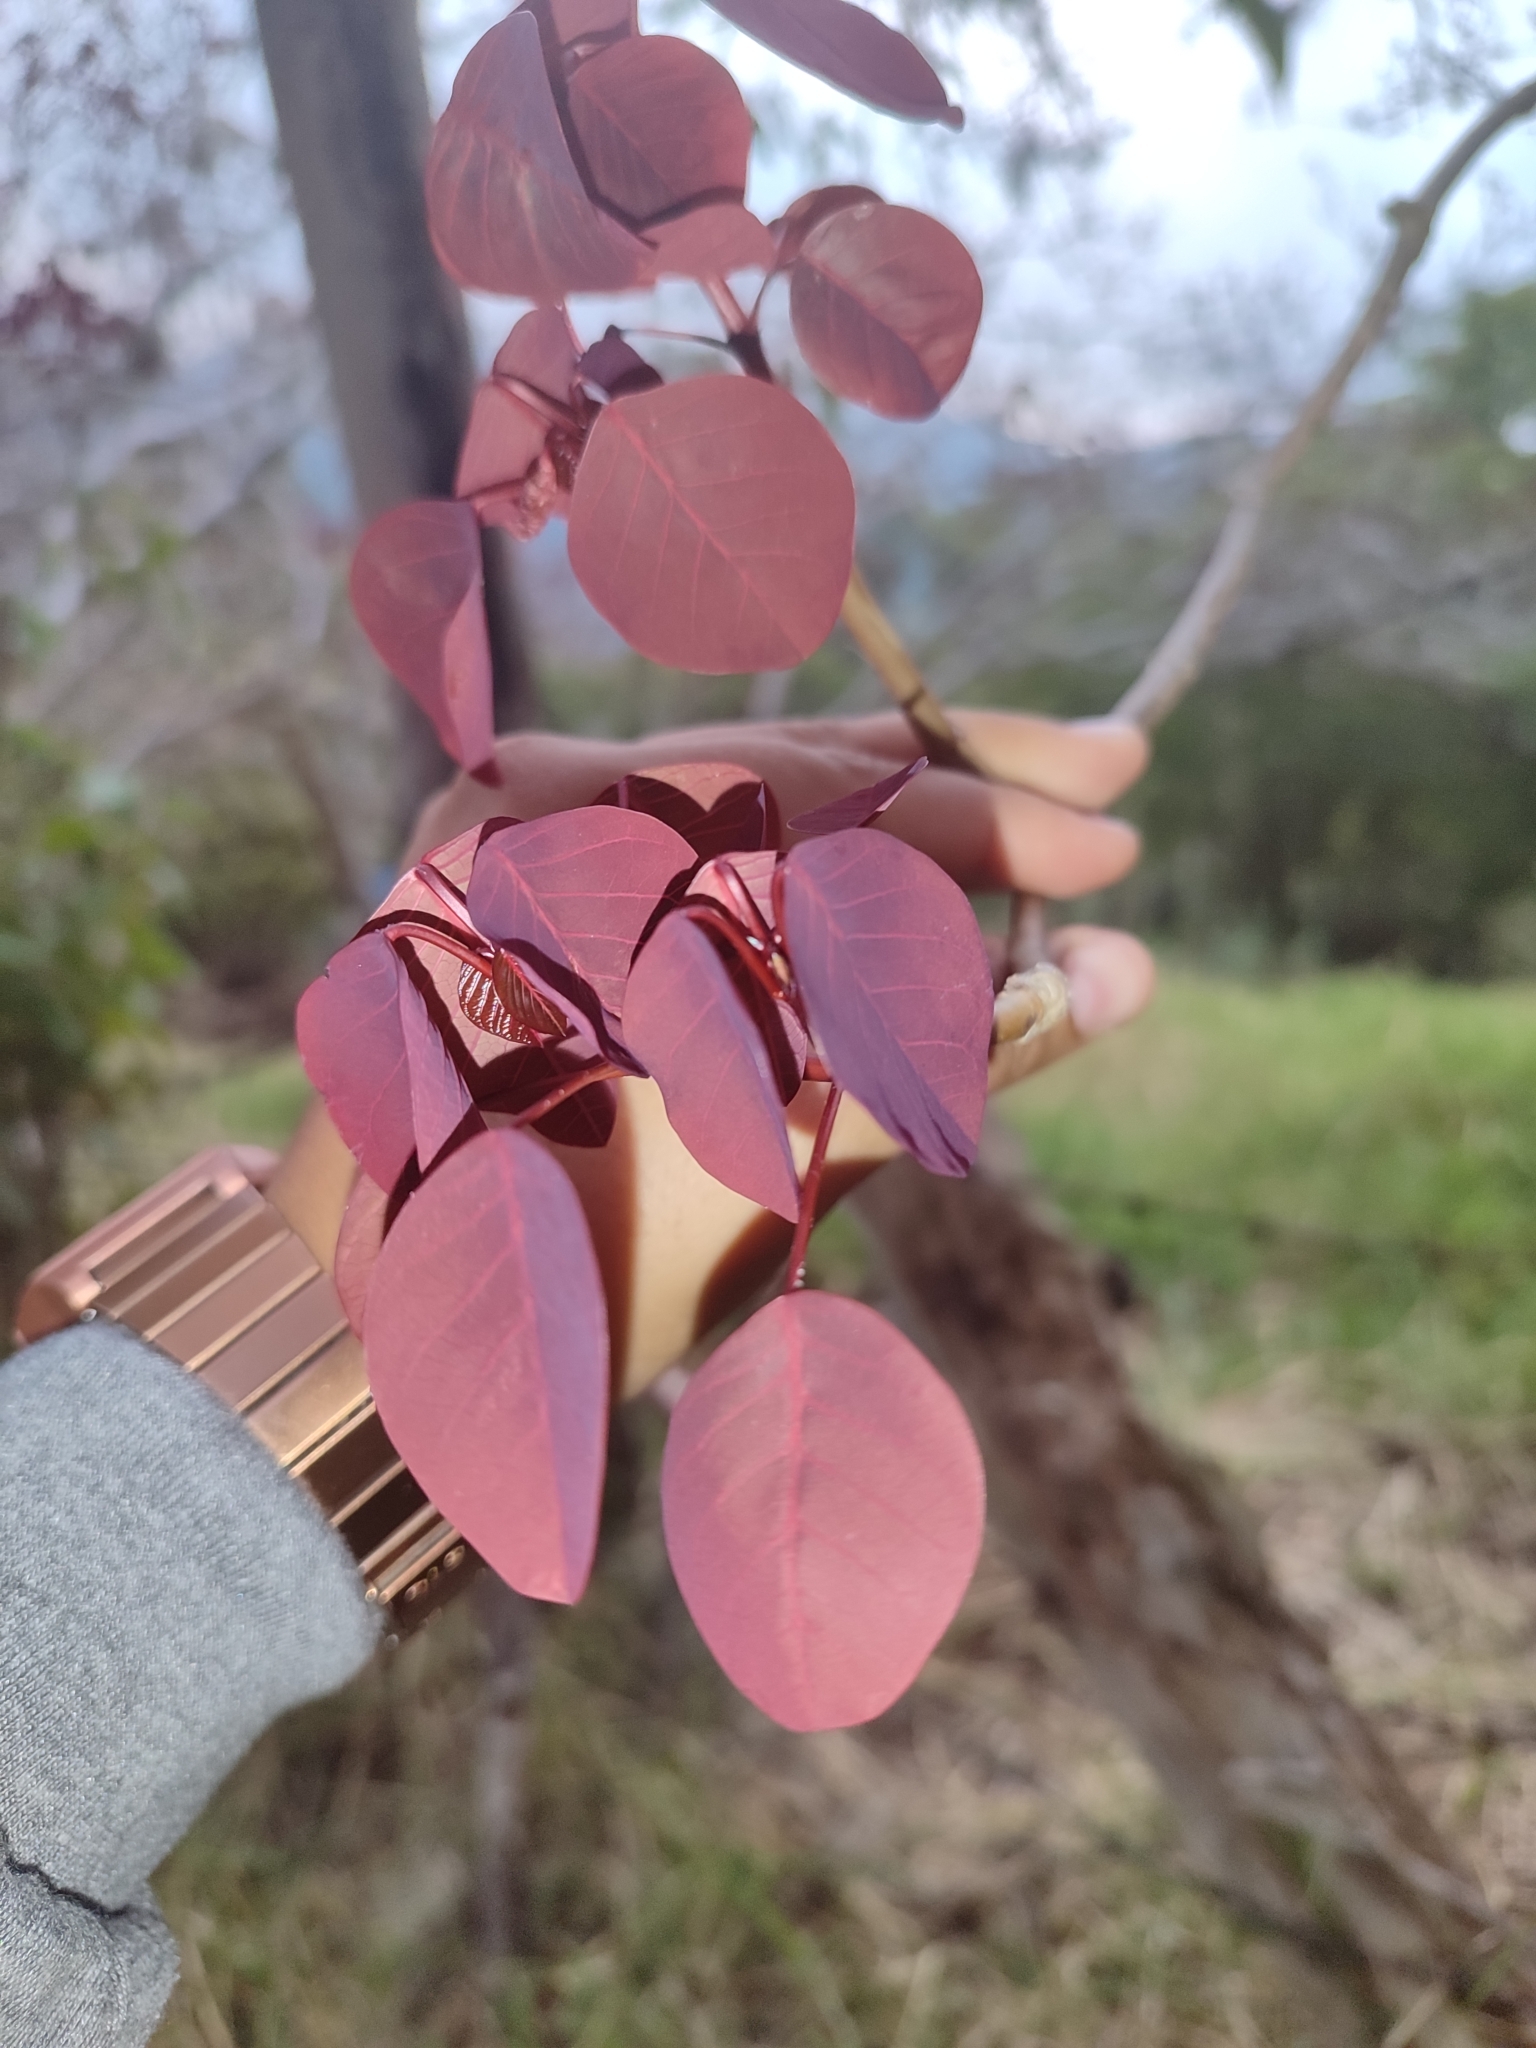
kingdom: Plantae
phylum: Tracheophyta
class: Magnoliopsida
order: Malpighiales
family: Euphorbiaceae
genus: Euphorbia
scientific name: Euphorbia cotinifolia
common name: Tropical smokebush
